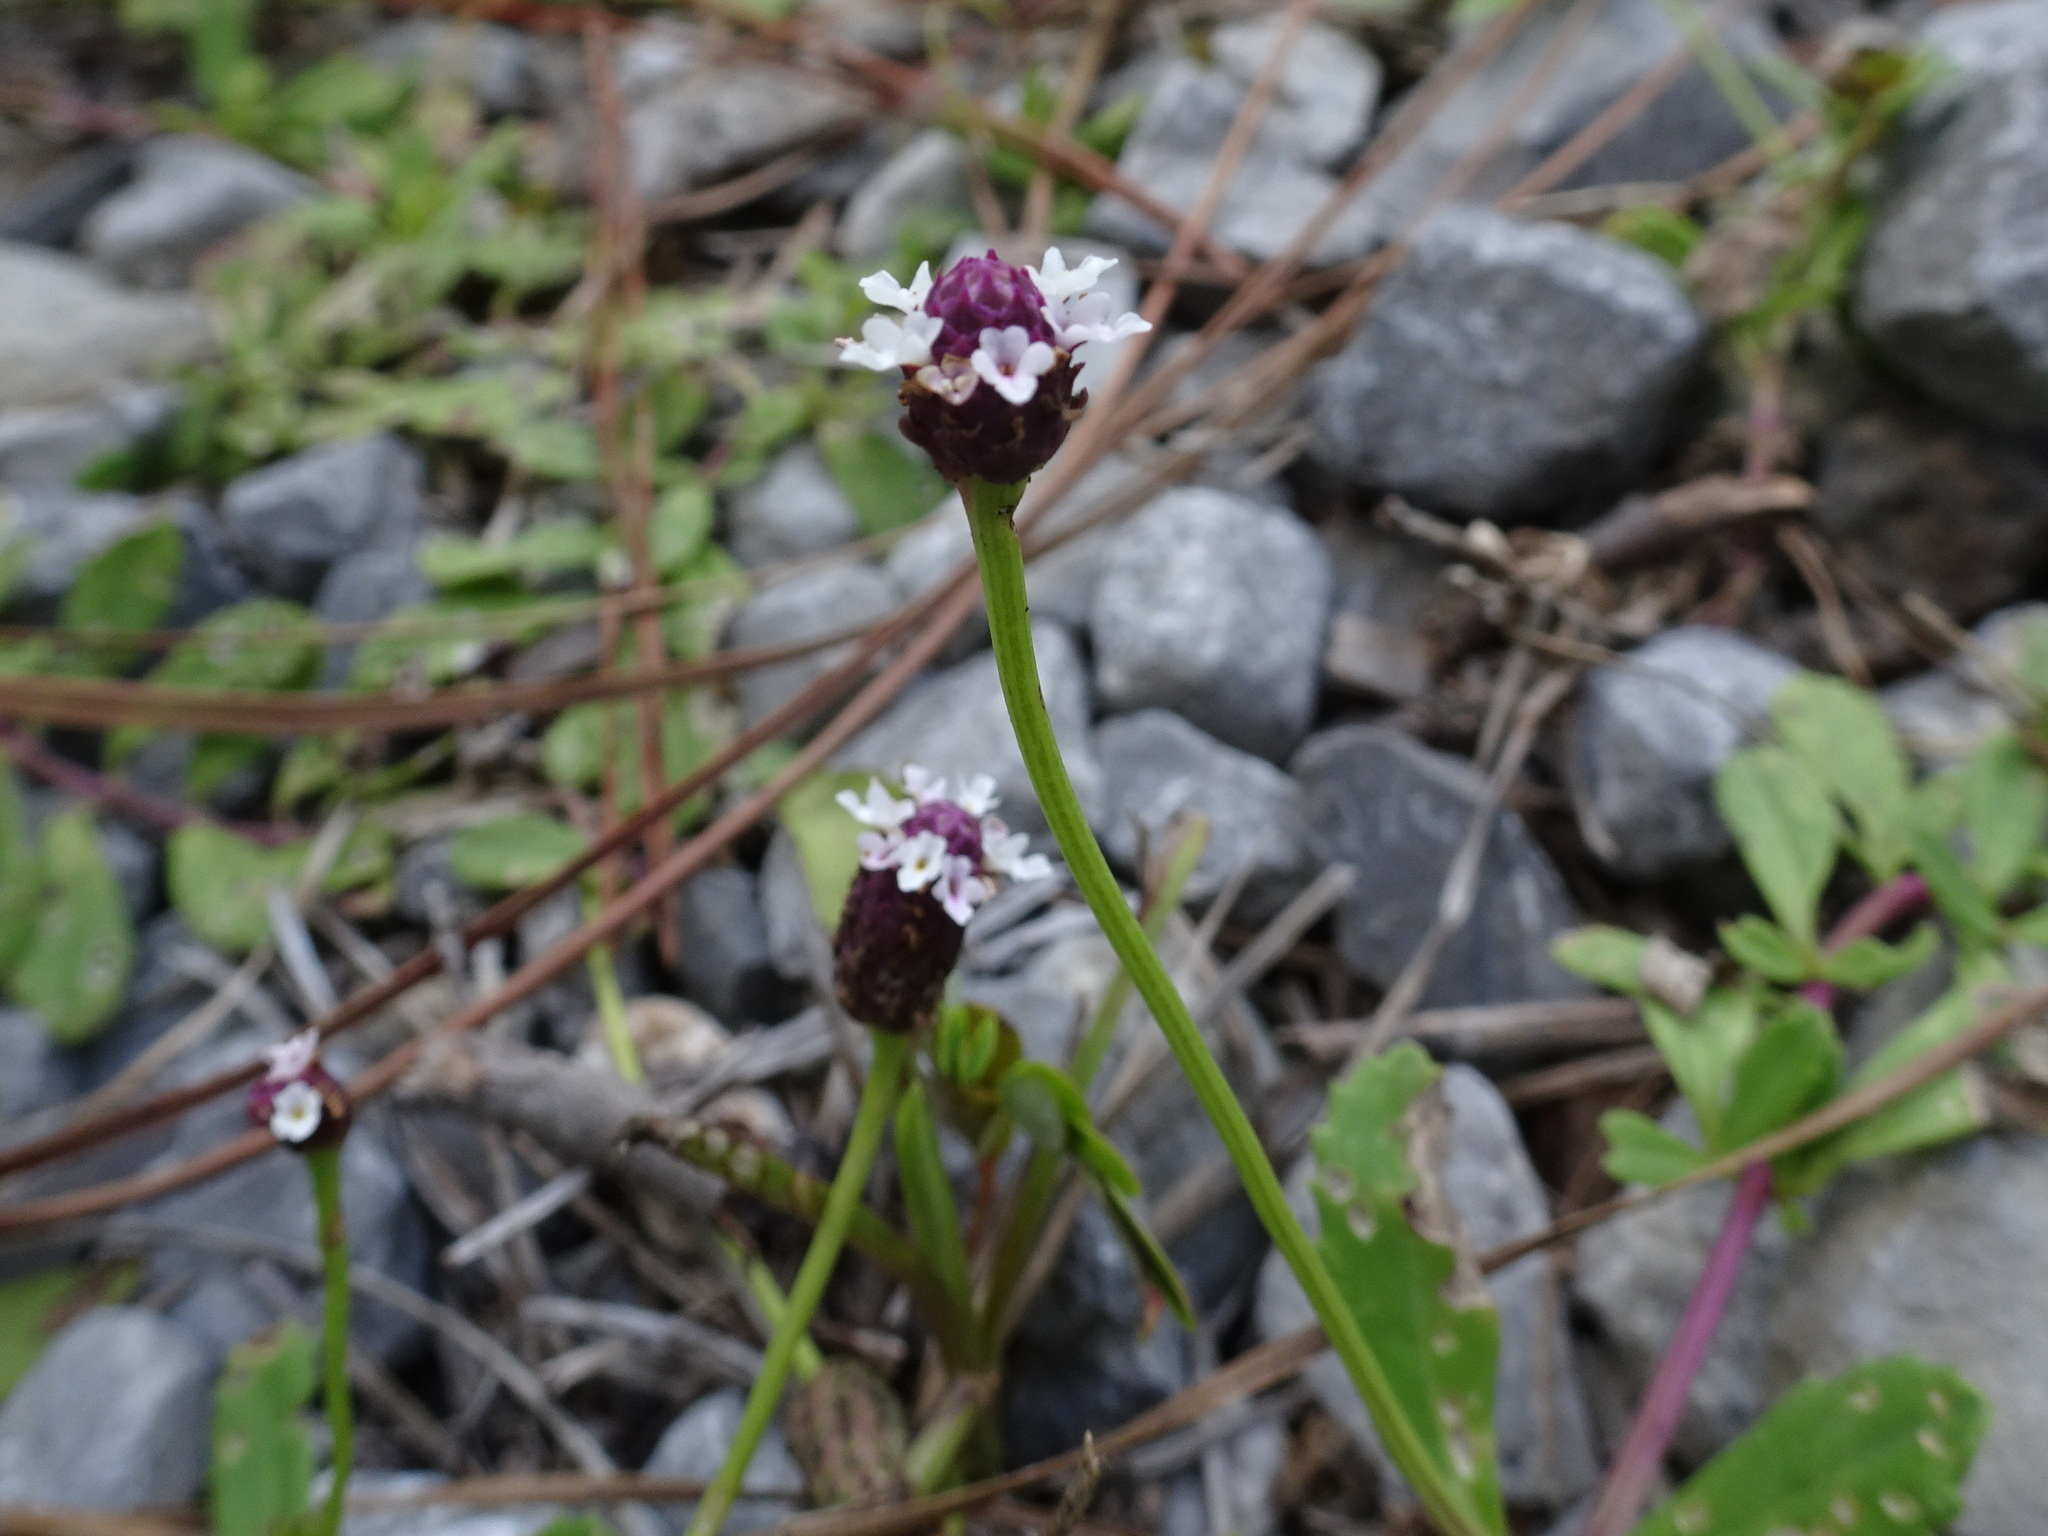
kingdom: Plantae
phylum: Tracheophyta
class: Magnoliopsida
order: Lamiales
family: Verbenaceae
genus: Phyla
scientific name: Phyla nodiflora
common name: Frogfruit
